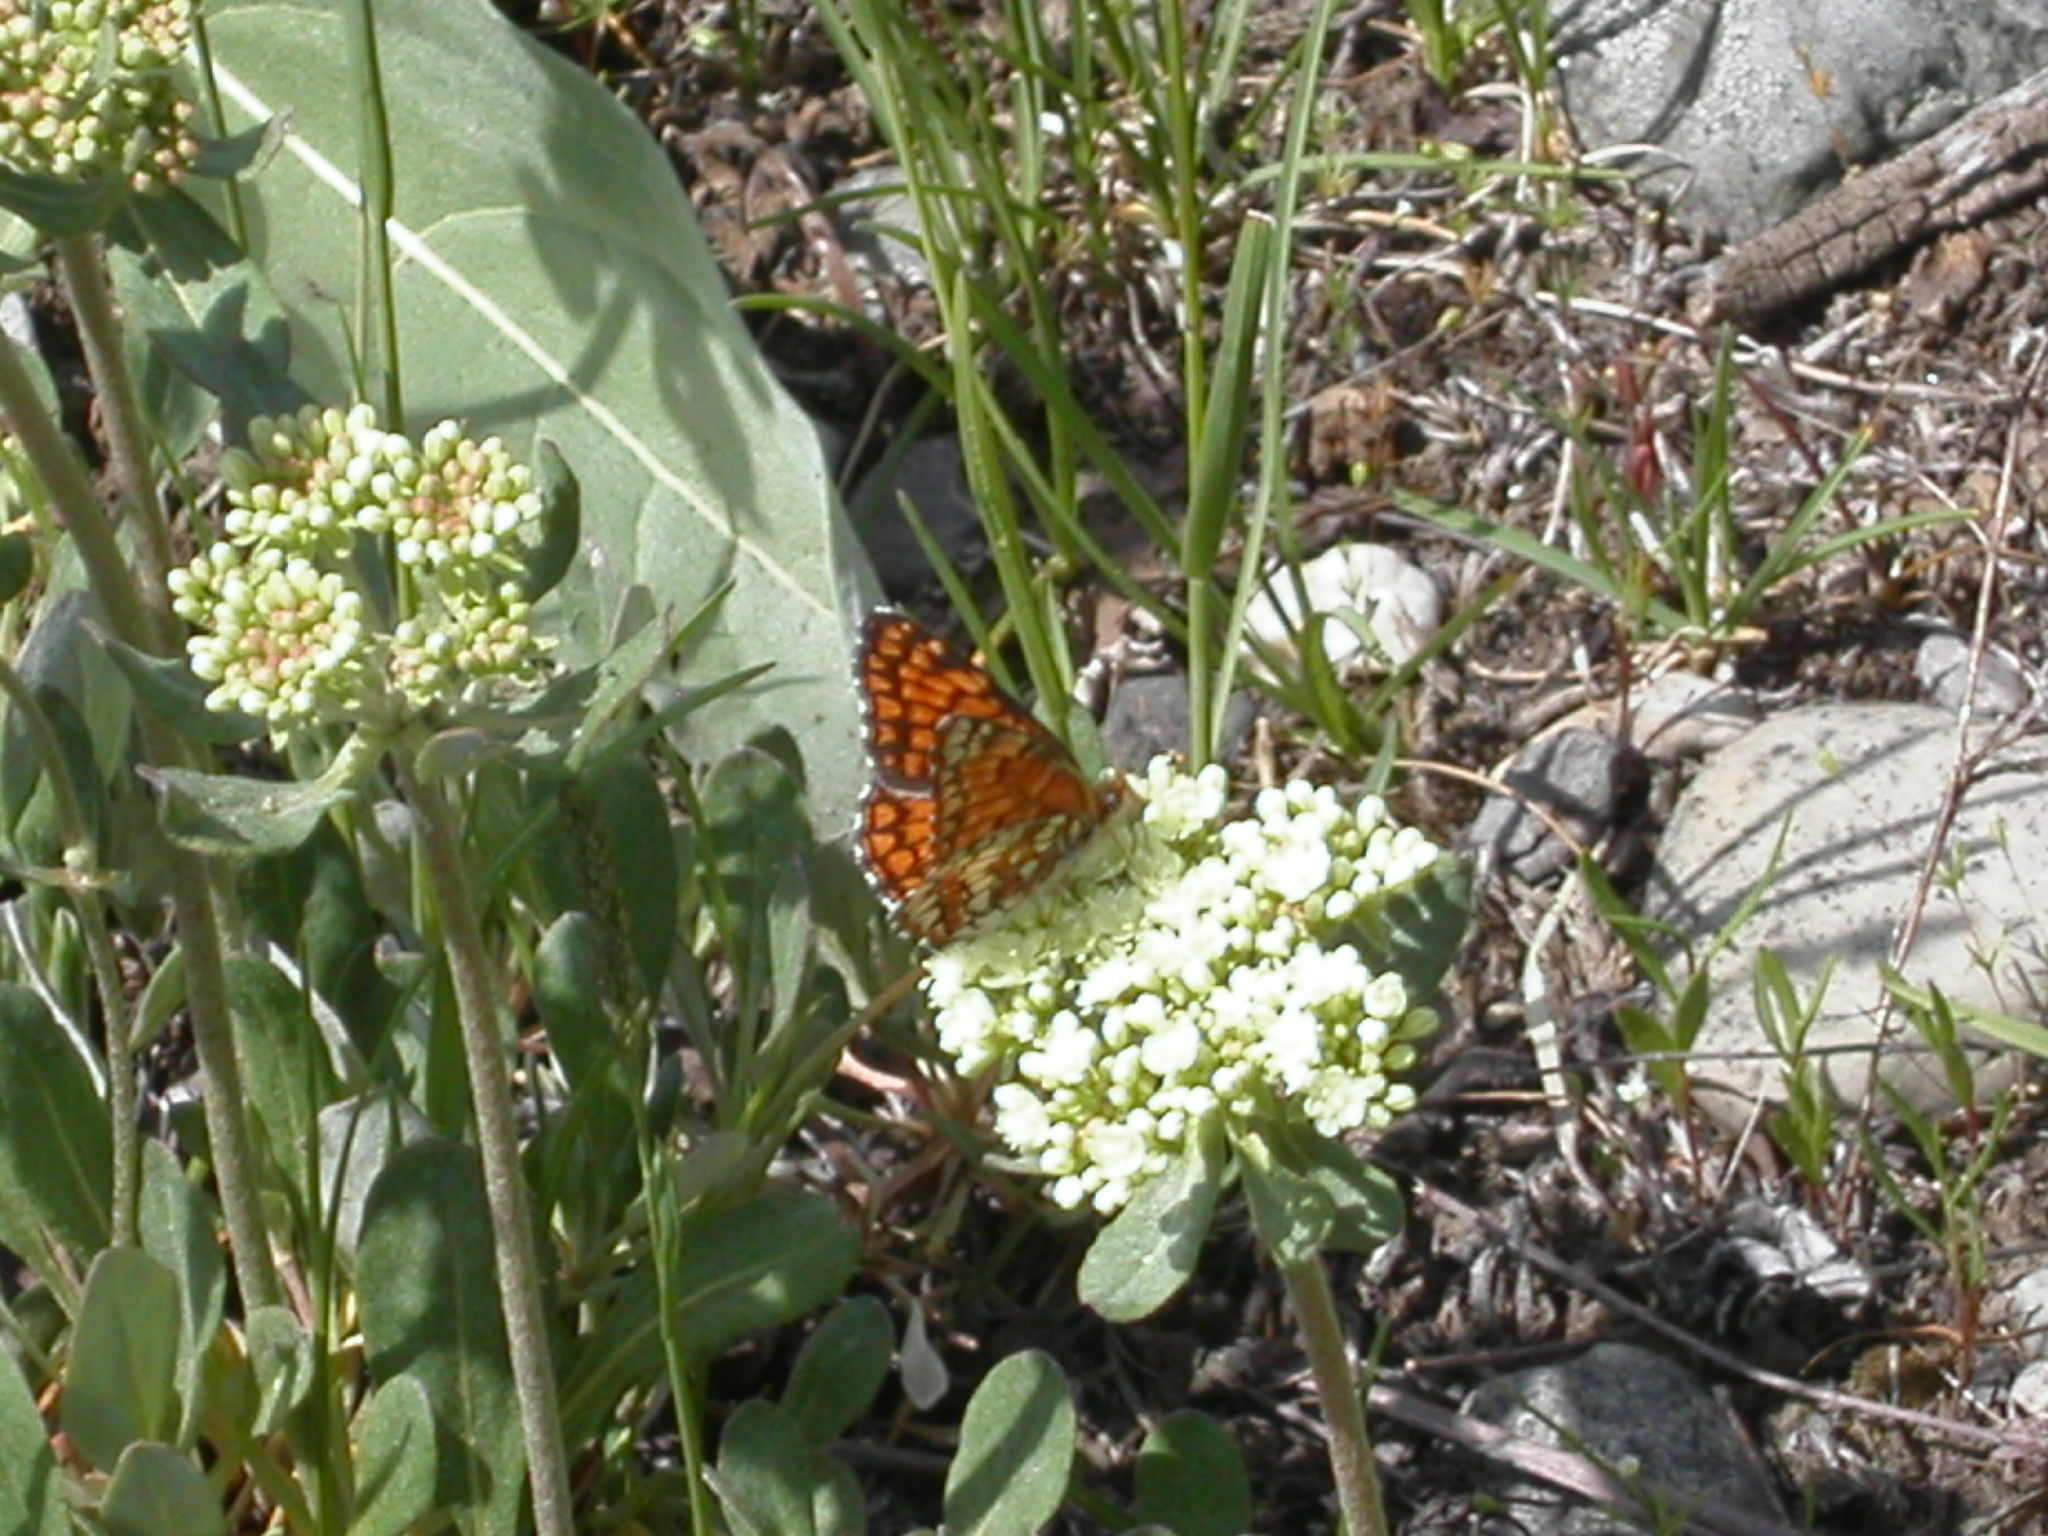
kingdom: Animalia
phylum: Arthropoda
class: Insecta
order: Lepidoptera
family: Nymphalidae
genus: Chlosyne
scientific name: Chlosyne palla
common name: Northern checkerspot
